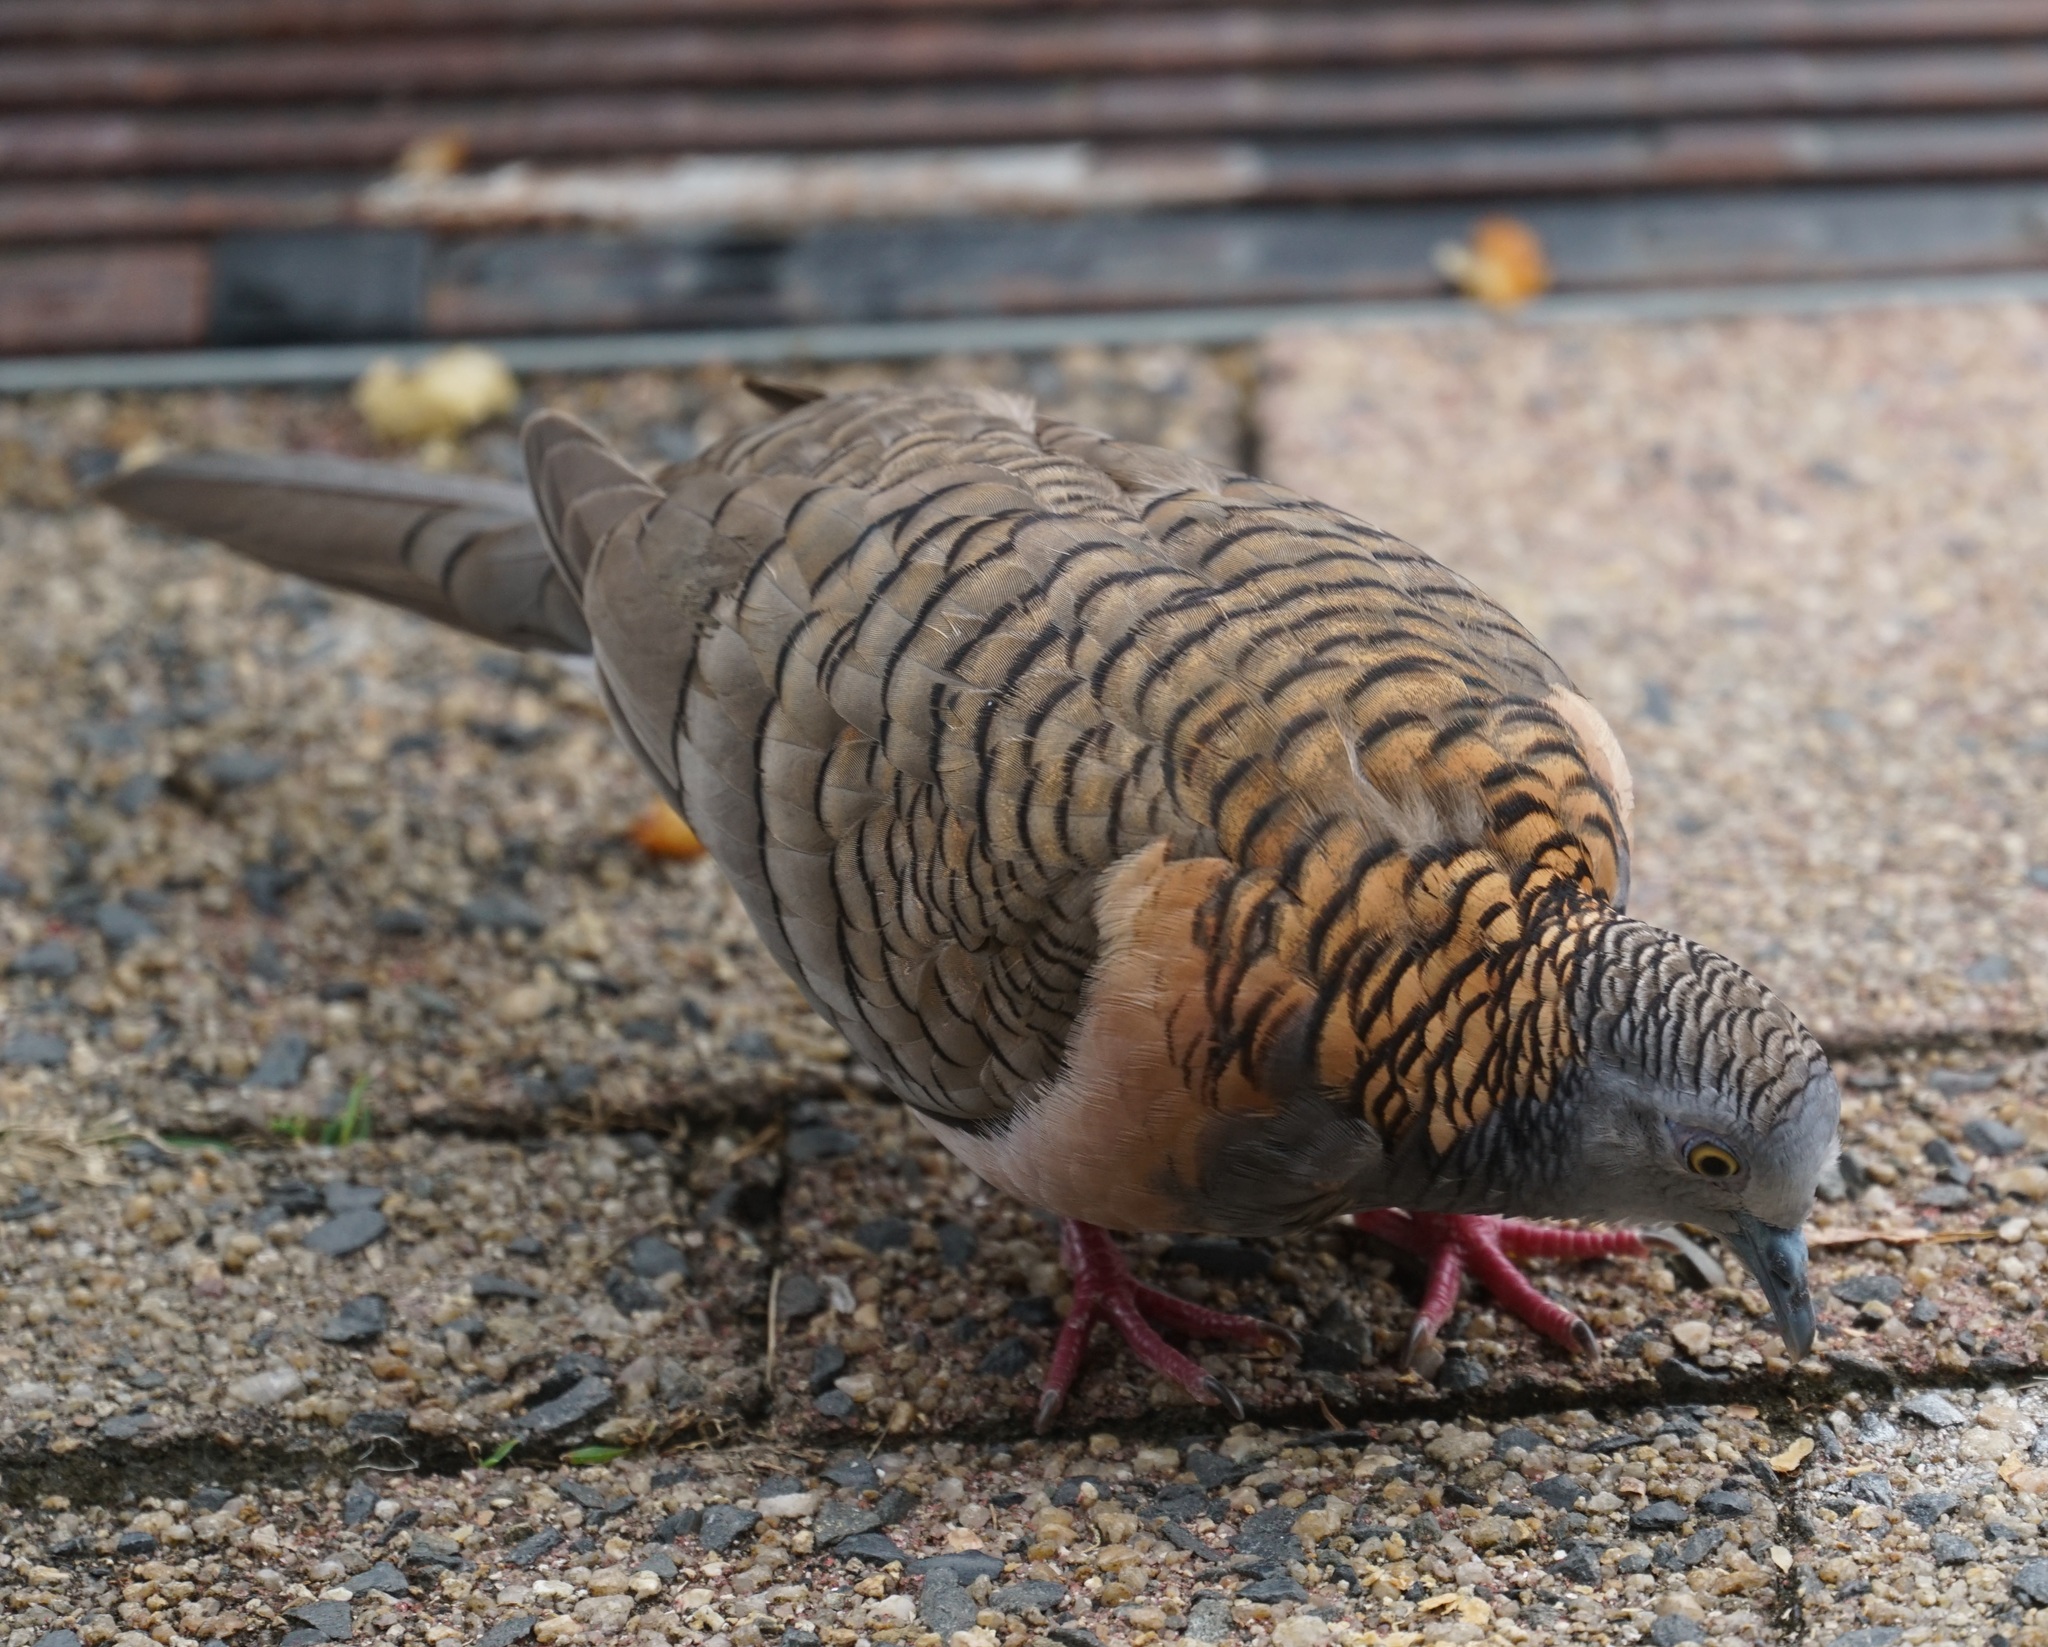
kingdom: Animalia
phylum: Chordata
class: Aves
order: Columbiformes
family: Columbidae
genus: Geopelia
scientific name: Geopelia humeralis
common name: Bar-shouldered dove
